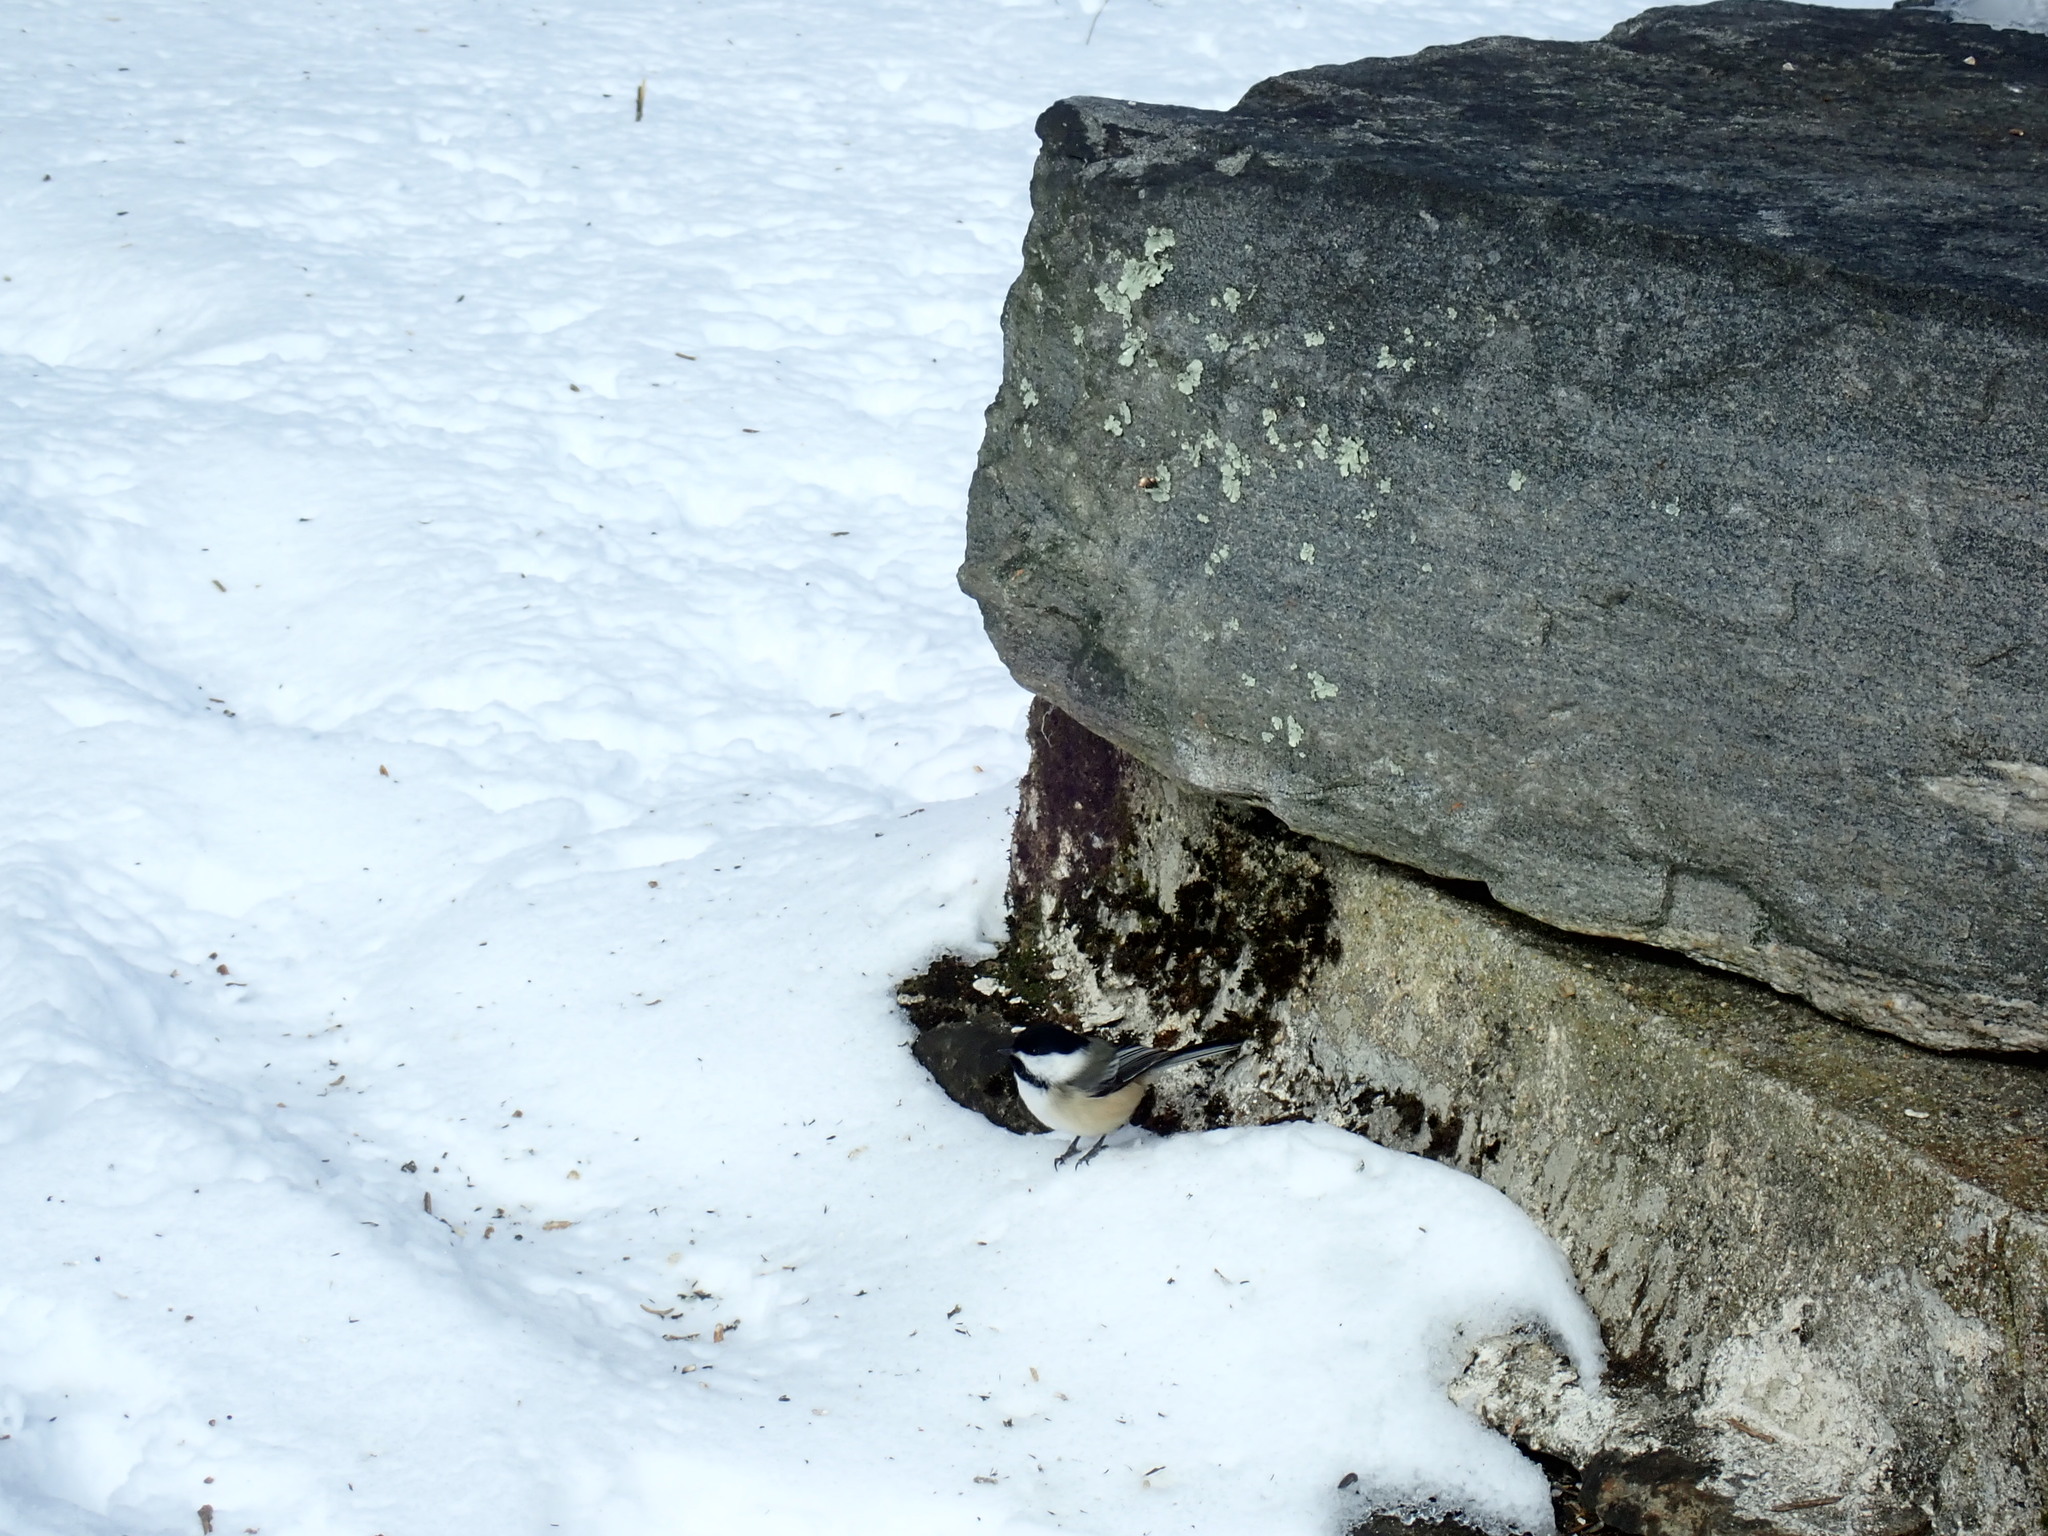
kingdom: Animalia
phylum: Chordata
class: Aves
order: Passeriformes
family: Paridae
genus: Poecile
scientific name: Poecile atricapillus
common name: Black-capped chickadee
